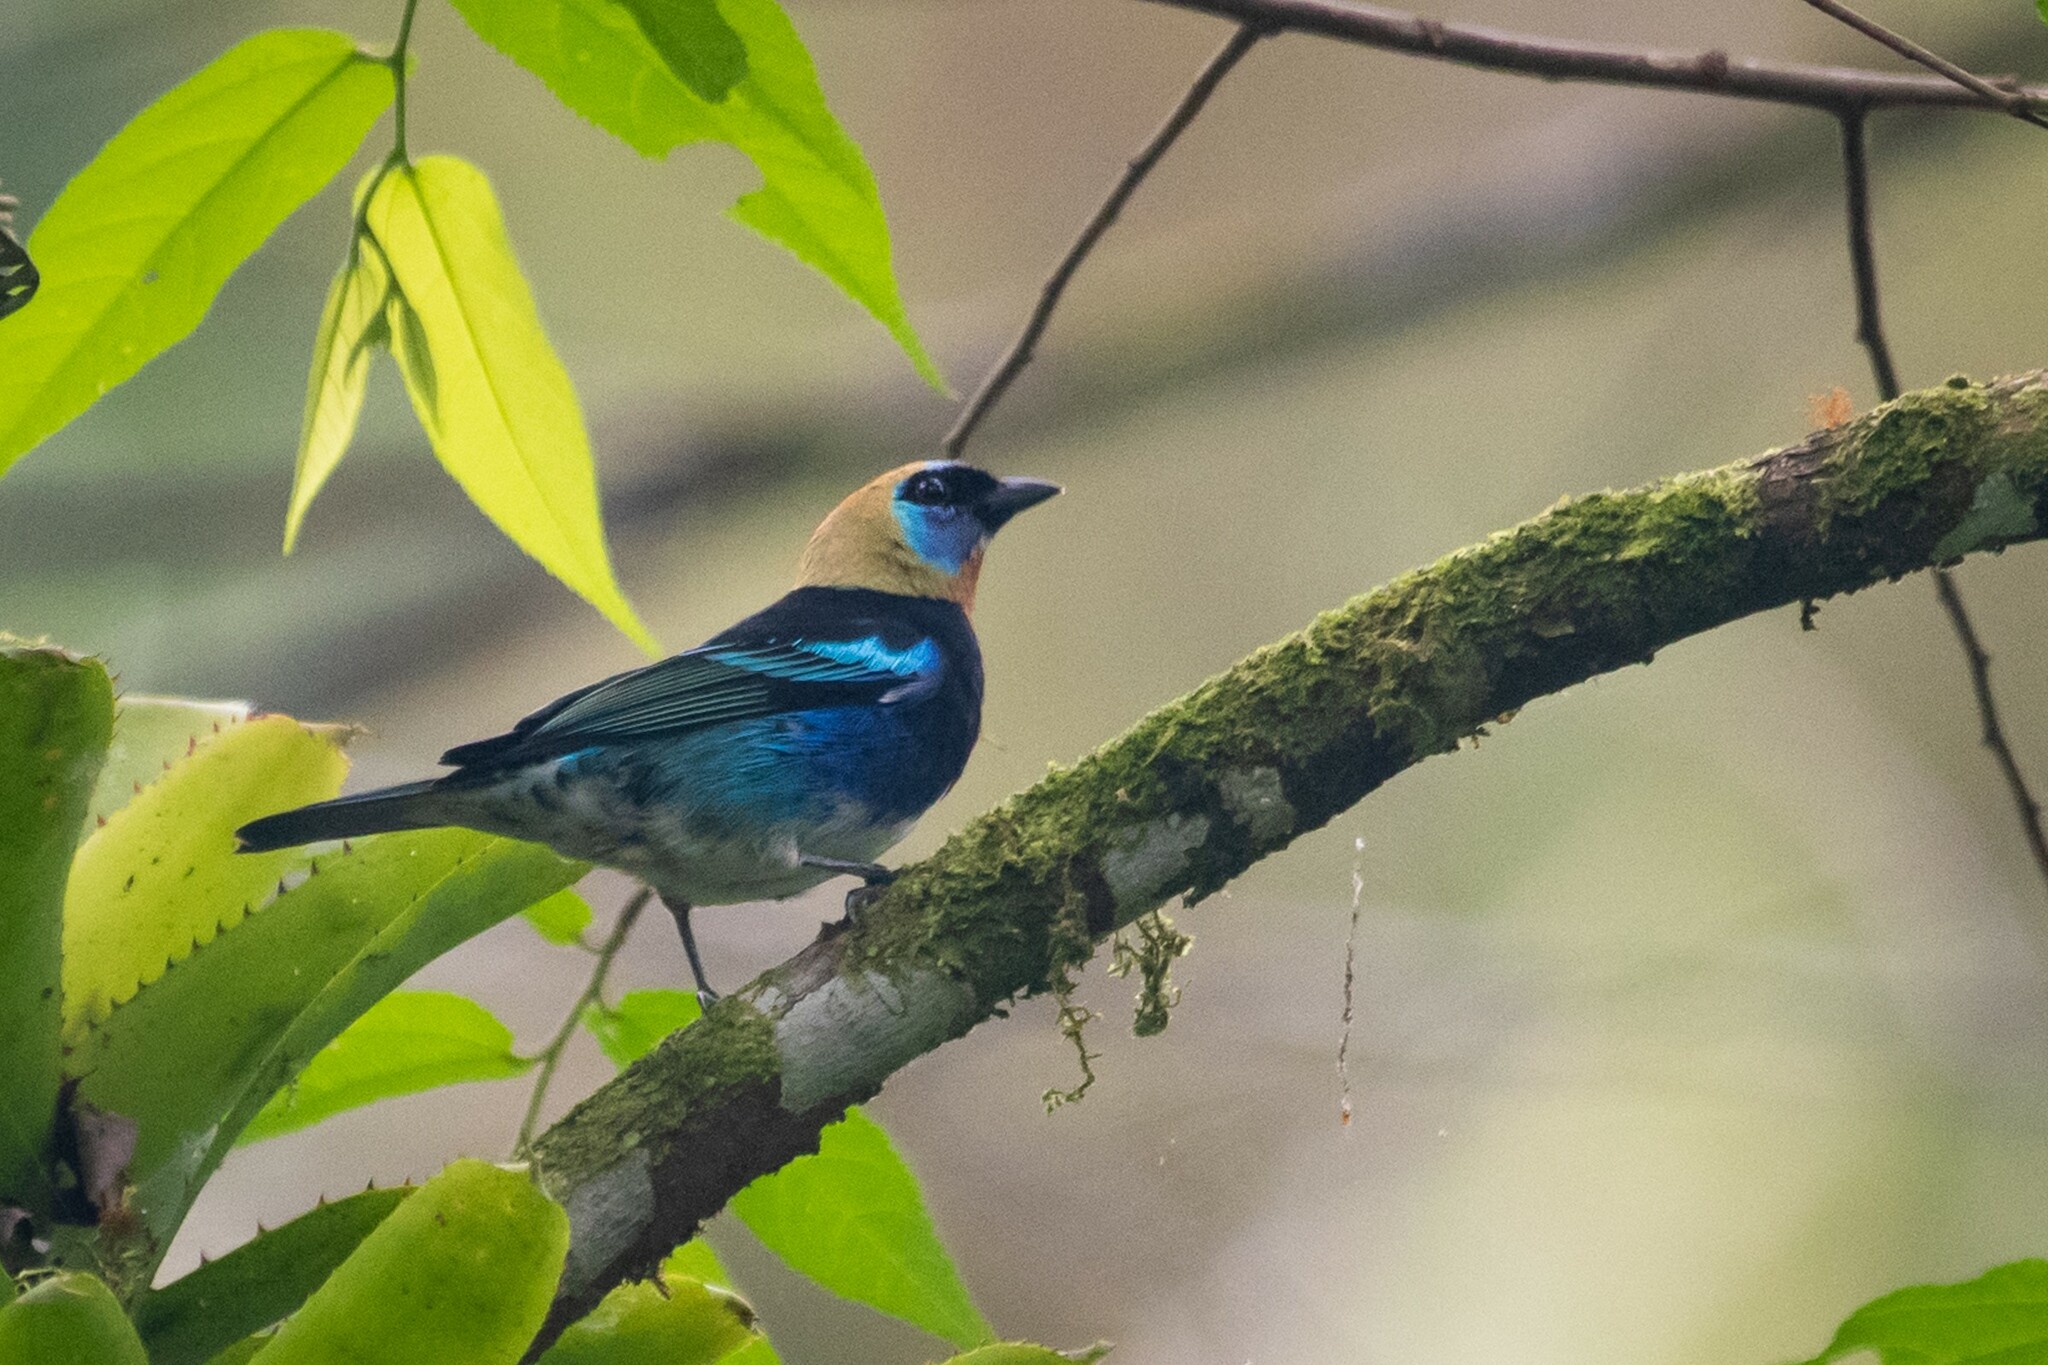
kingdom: Animalia
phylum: Chordata
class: Aves
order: Passeriformes
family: Thraupidae
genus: Stilpnia
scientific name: Stilpnia larvata
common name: Golden-hooded tanager
